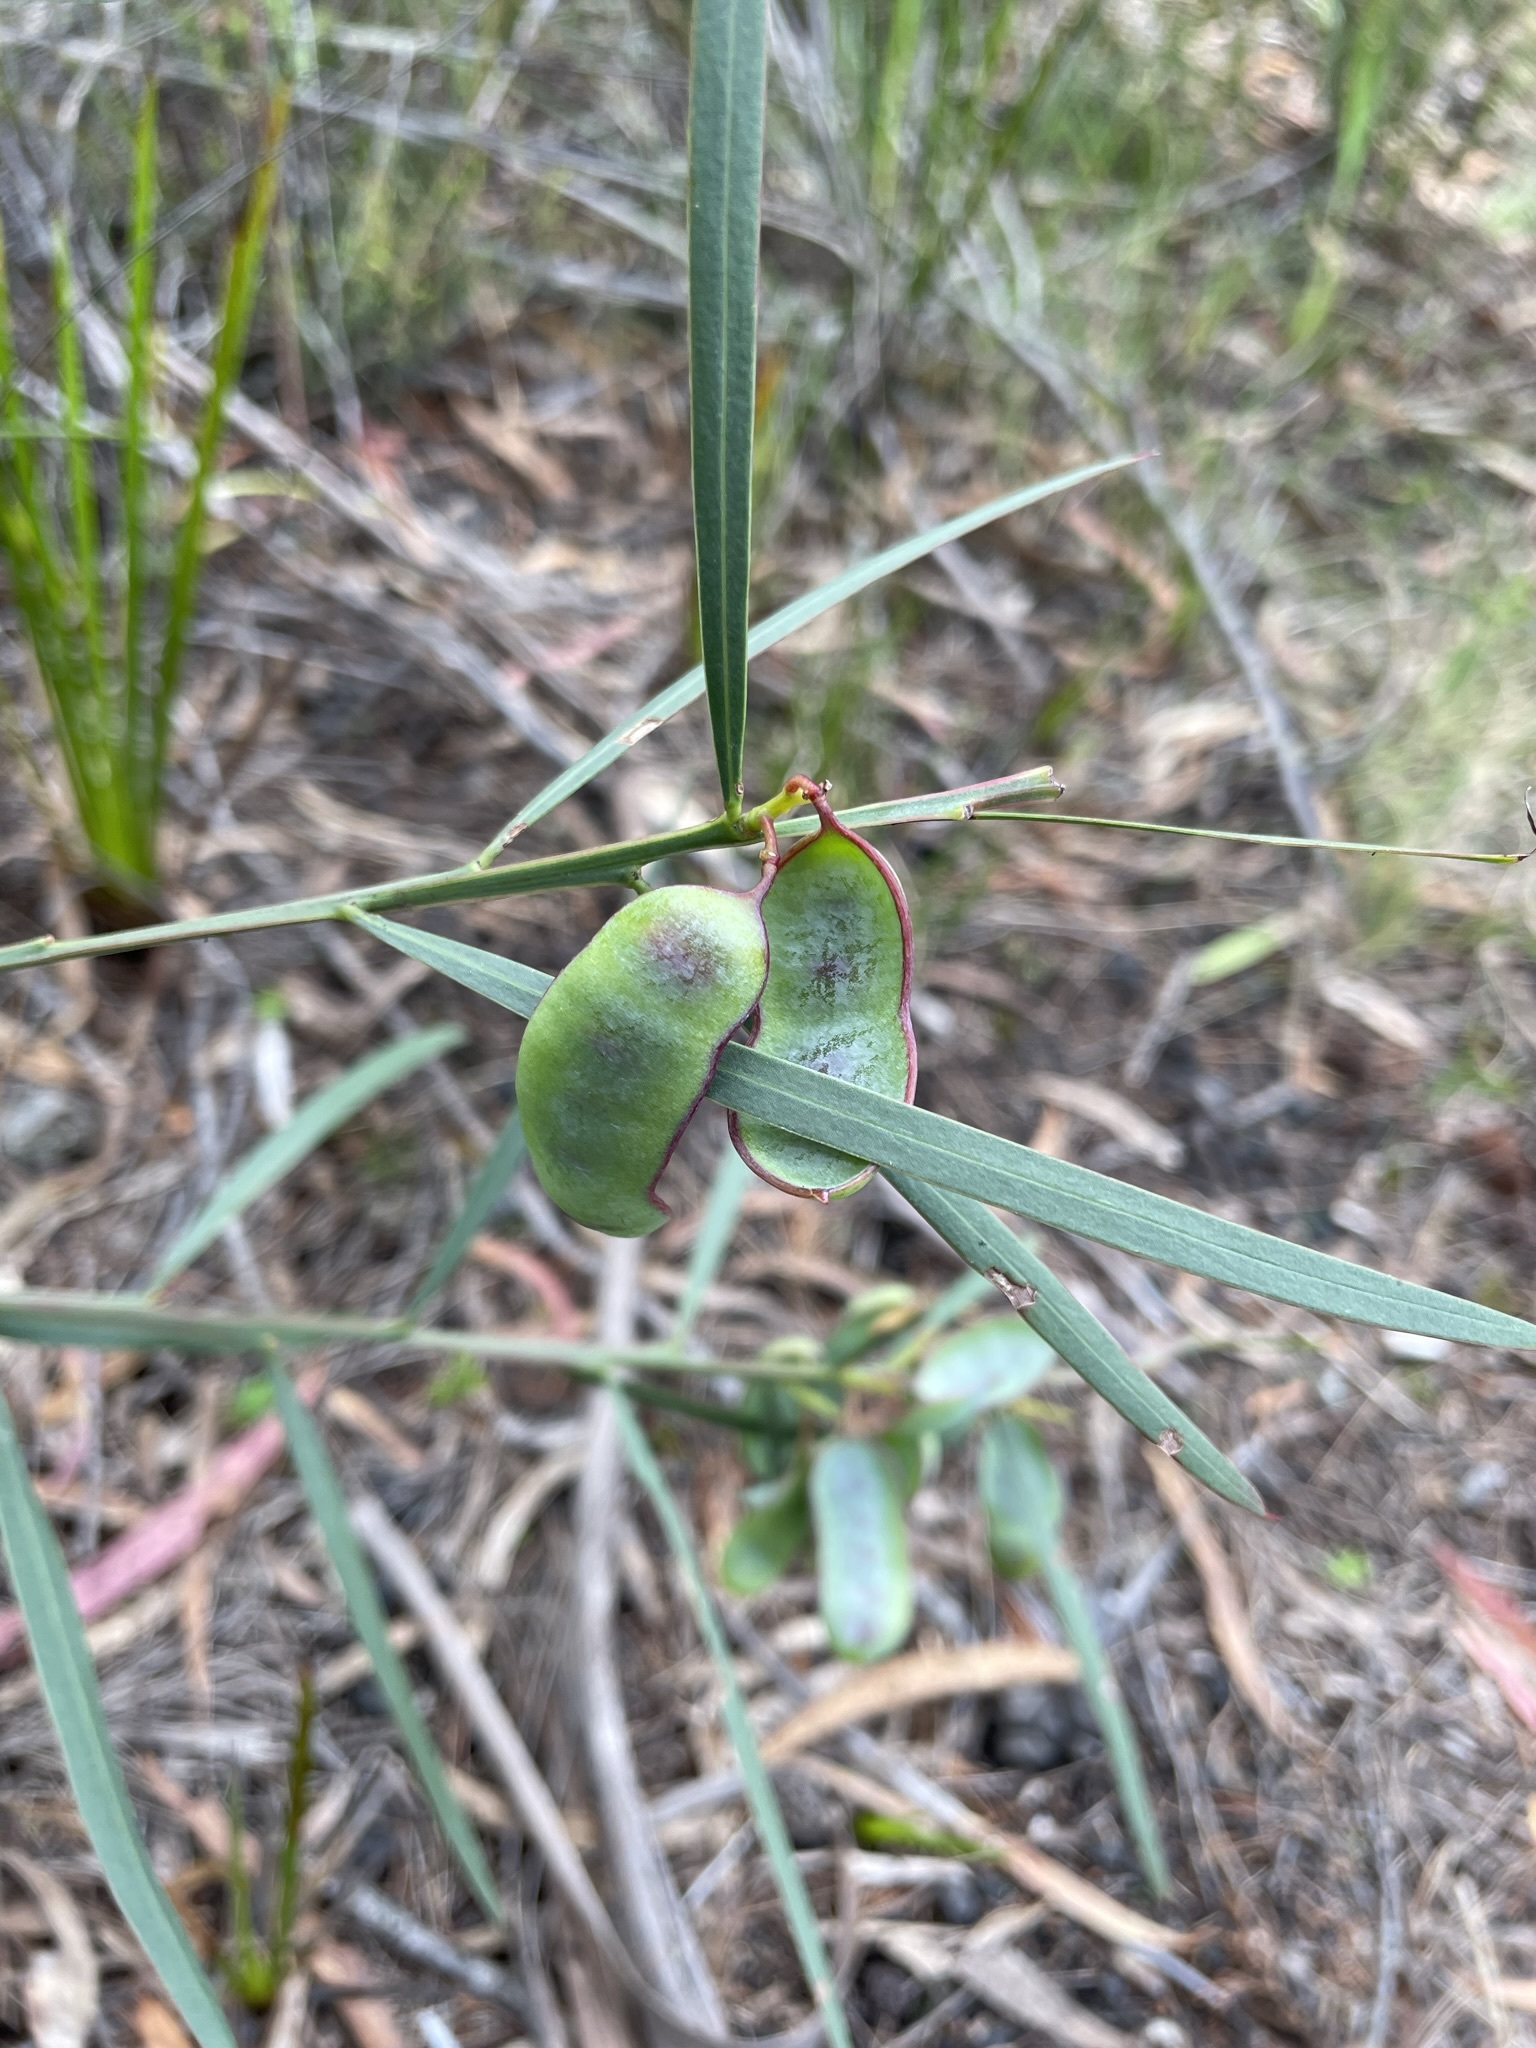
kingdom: Plantae
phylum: Tracheophyta
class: Magnoliopsida
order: Fabales
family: Fabaceae
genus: Acacia
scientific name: Acacia suaveolens
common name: Sweet acacia
